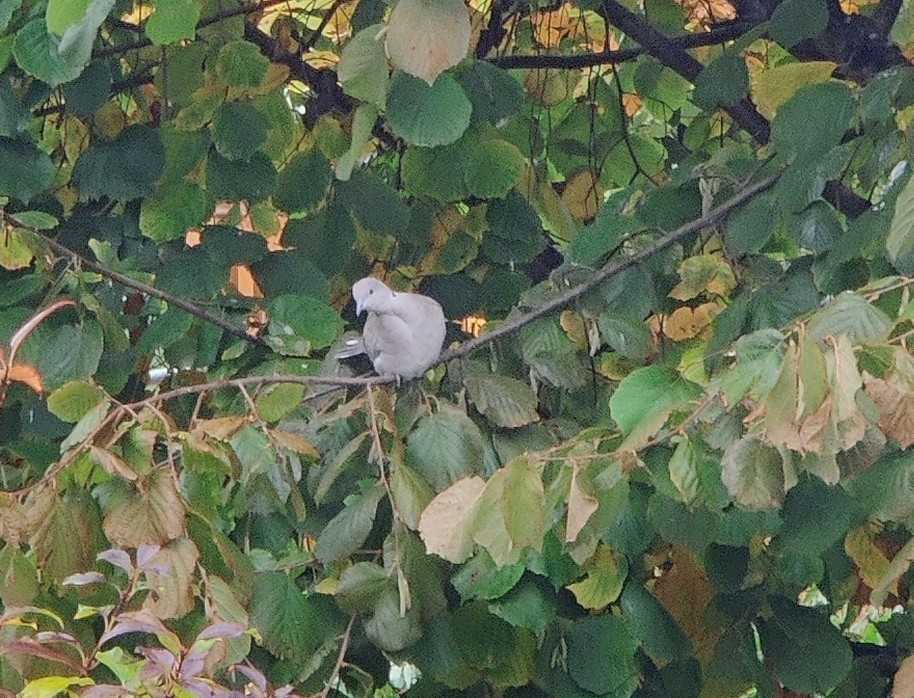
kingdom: Animalia
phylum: Chordata
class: Aves
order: Columbiformes
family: Columbidae
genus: Streptopelia
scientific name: Streptopelia decaocto
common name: Eurasian collared dove
